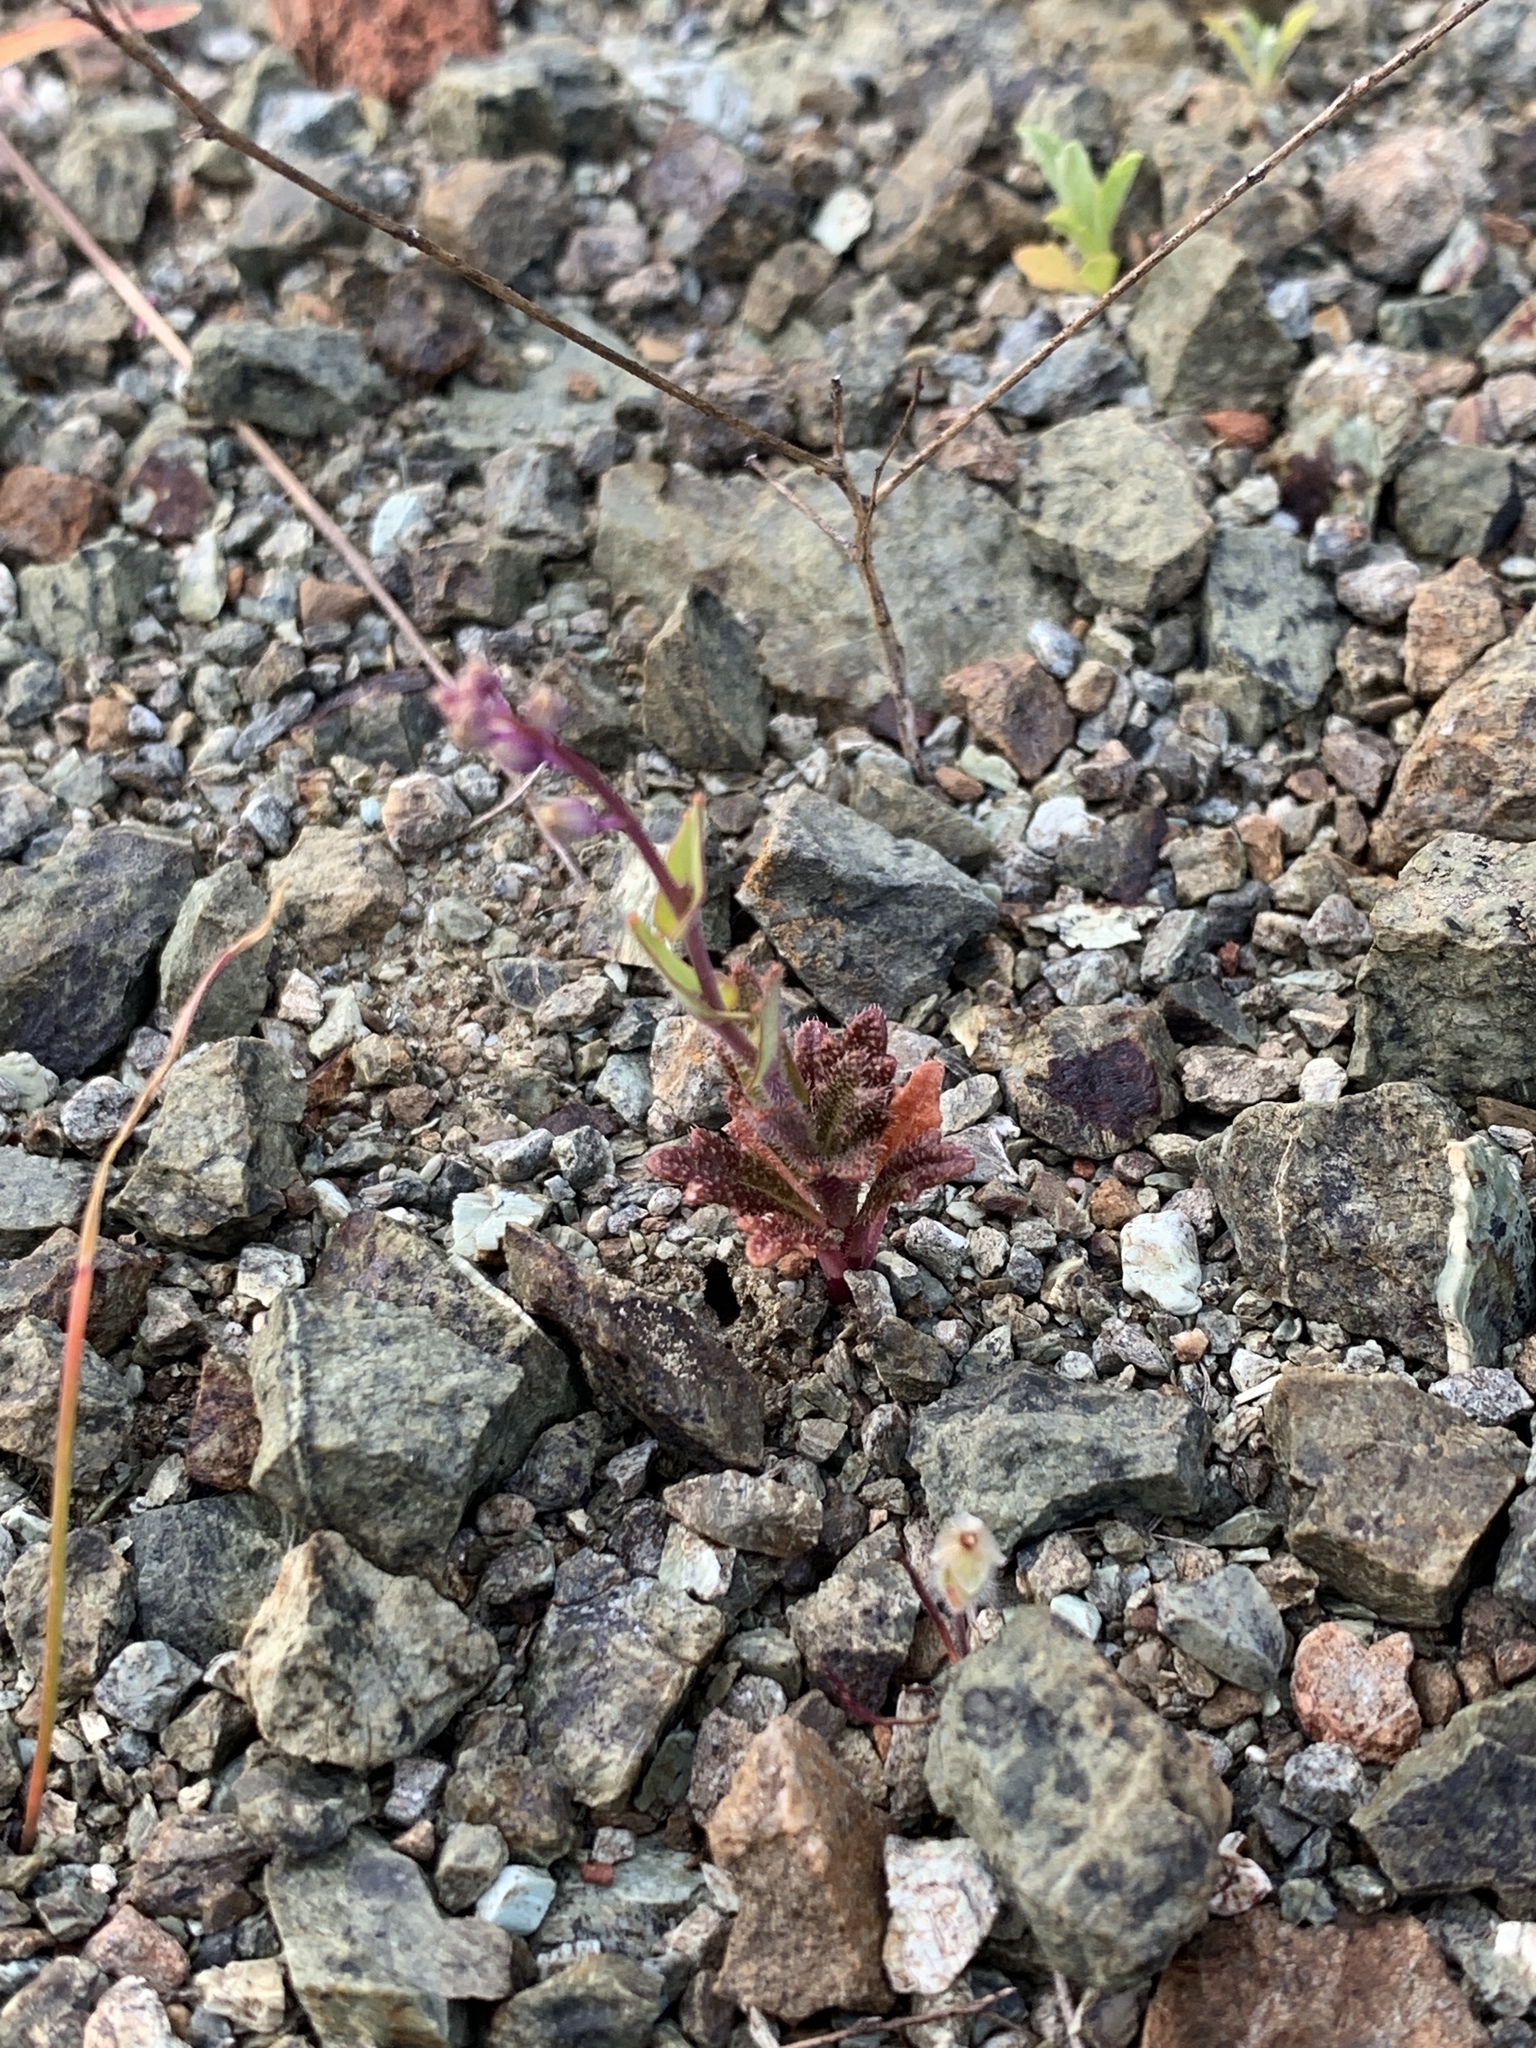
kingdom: Plantae
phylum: Tracheophyta
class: Magnoliopsida
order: Brassicales
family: Brassicaceae
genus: Streptanthus
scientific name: Streptanthus glandulosus
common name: Jewel-flower
